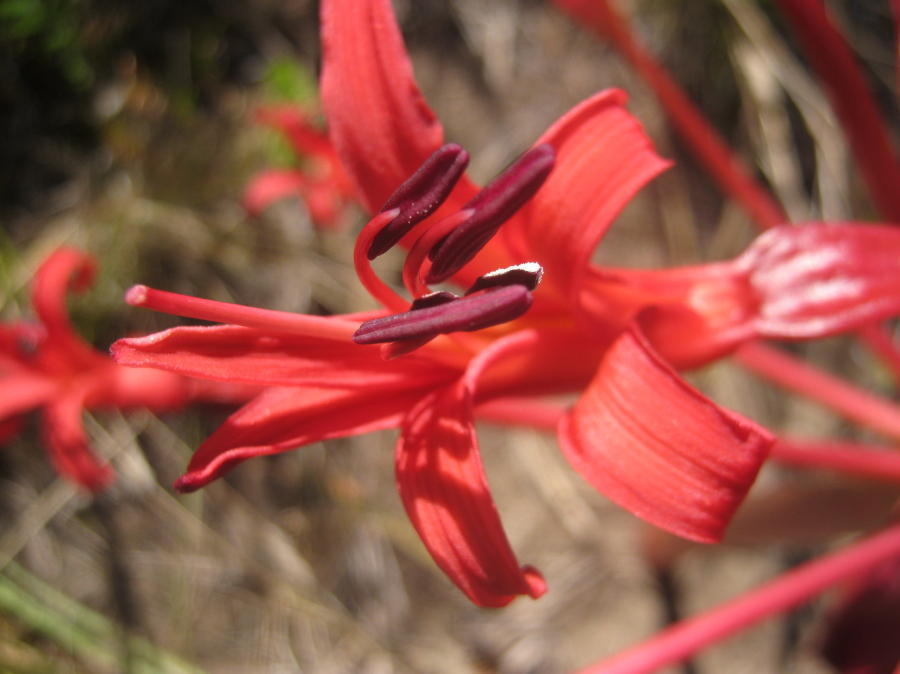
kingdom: Plantae
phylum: Tracheophyta
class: Liliopsida
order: Asparagales
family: Amaryllidaceae
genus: Brunsvigia
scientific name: Brunsvigia orientalis
